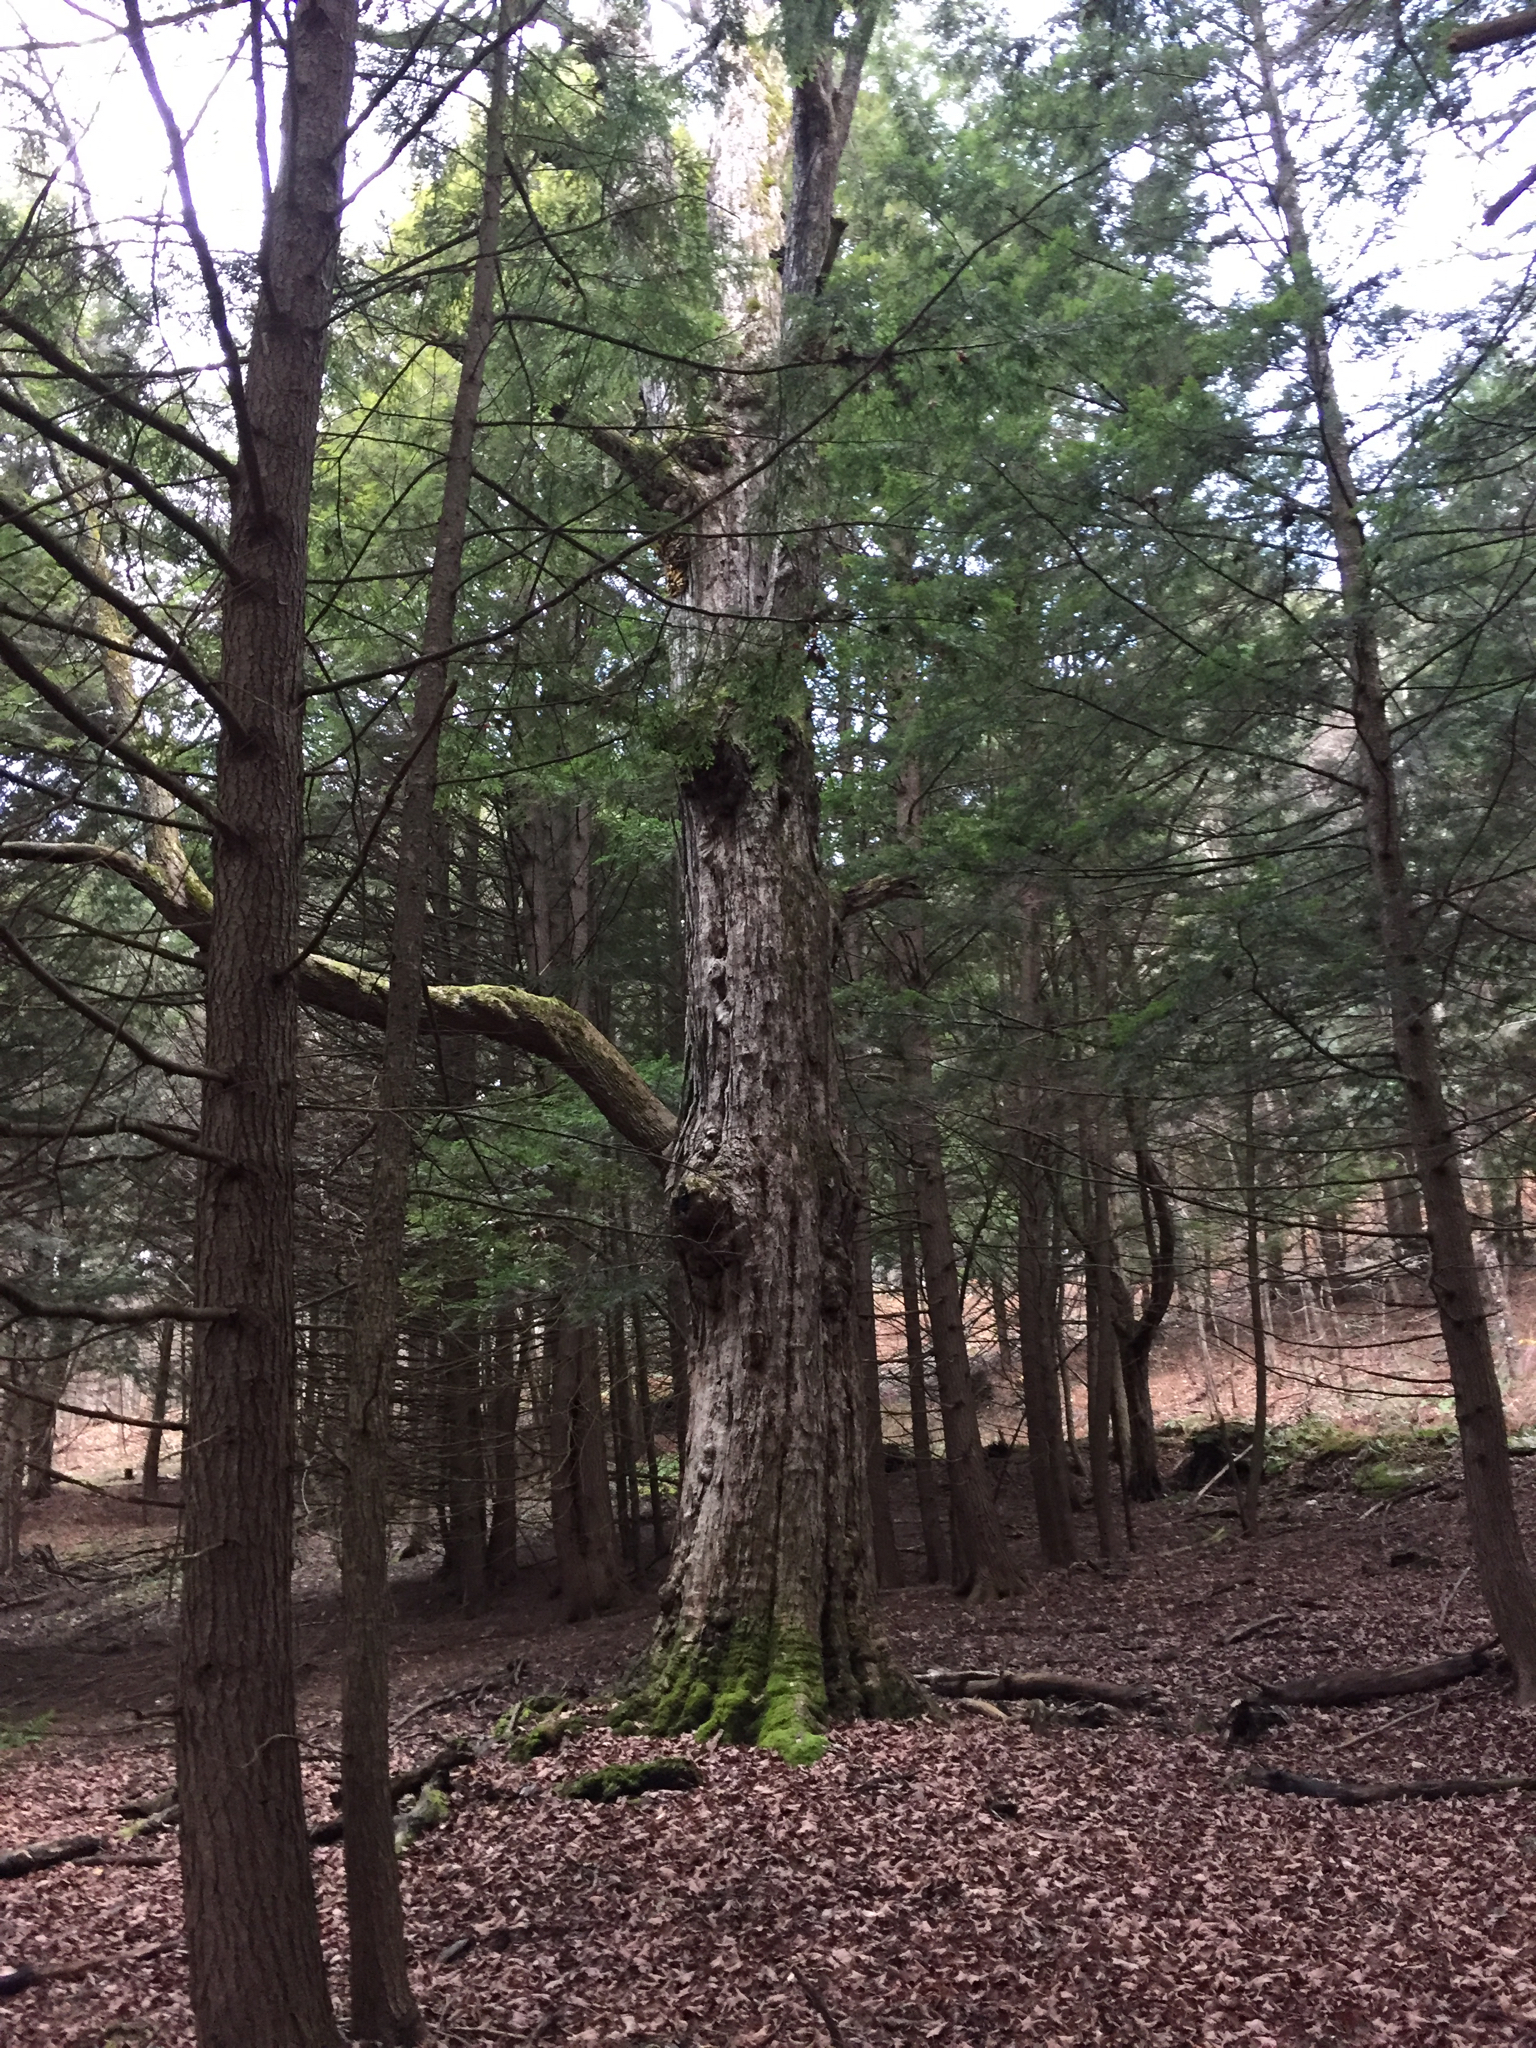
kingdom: Plantae
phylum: Tracheophyta
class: Magnoliopsida
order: Sapindales
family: Sapindaceae
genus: Acer
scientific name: Acer saccharum
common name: Sugar maple
